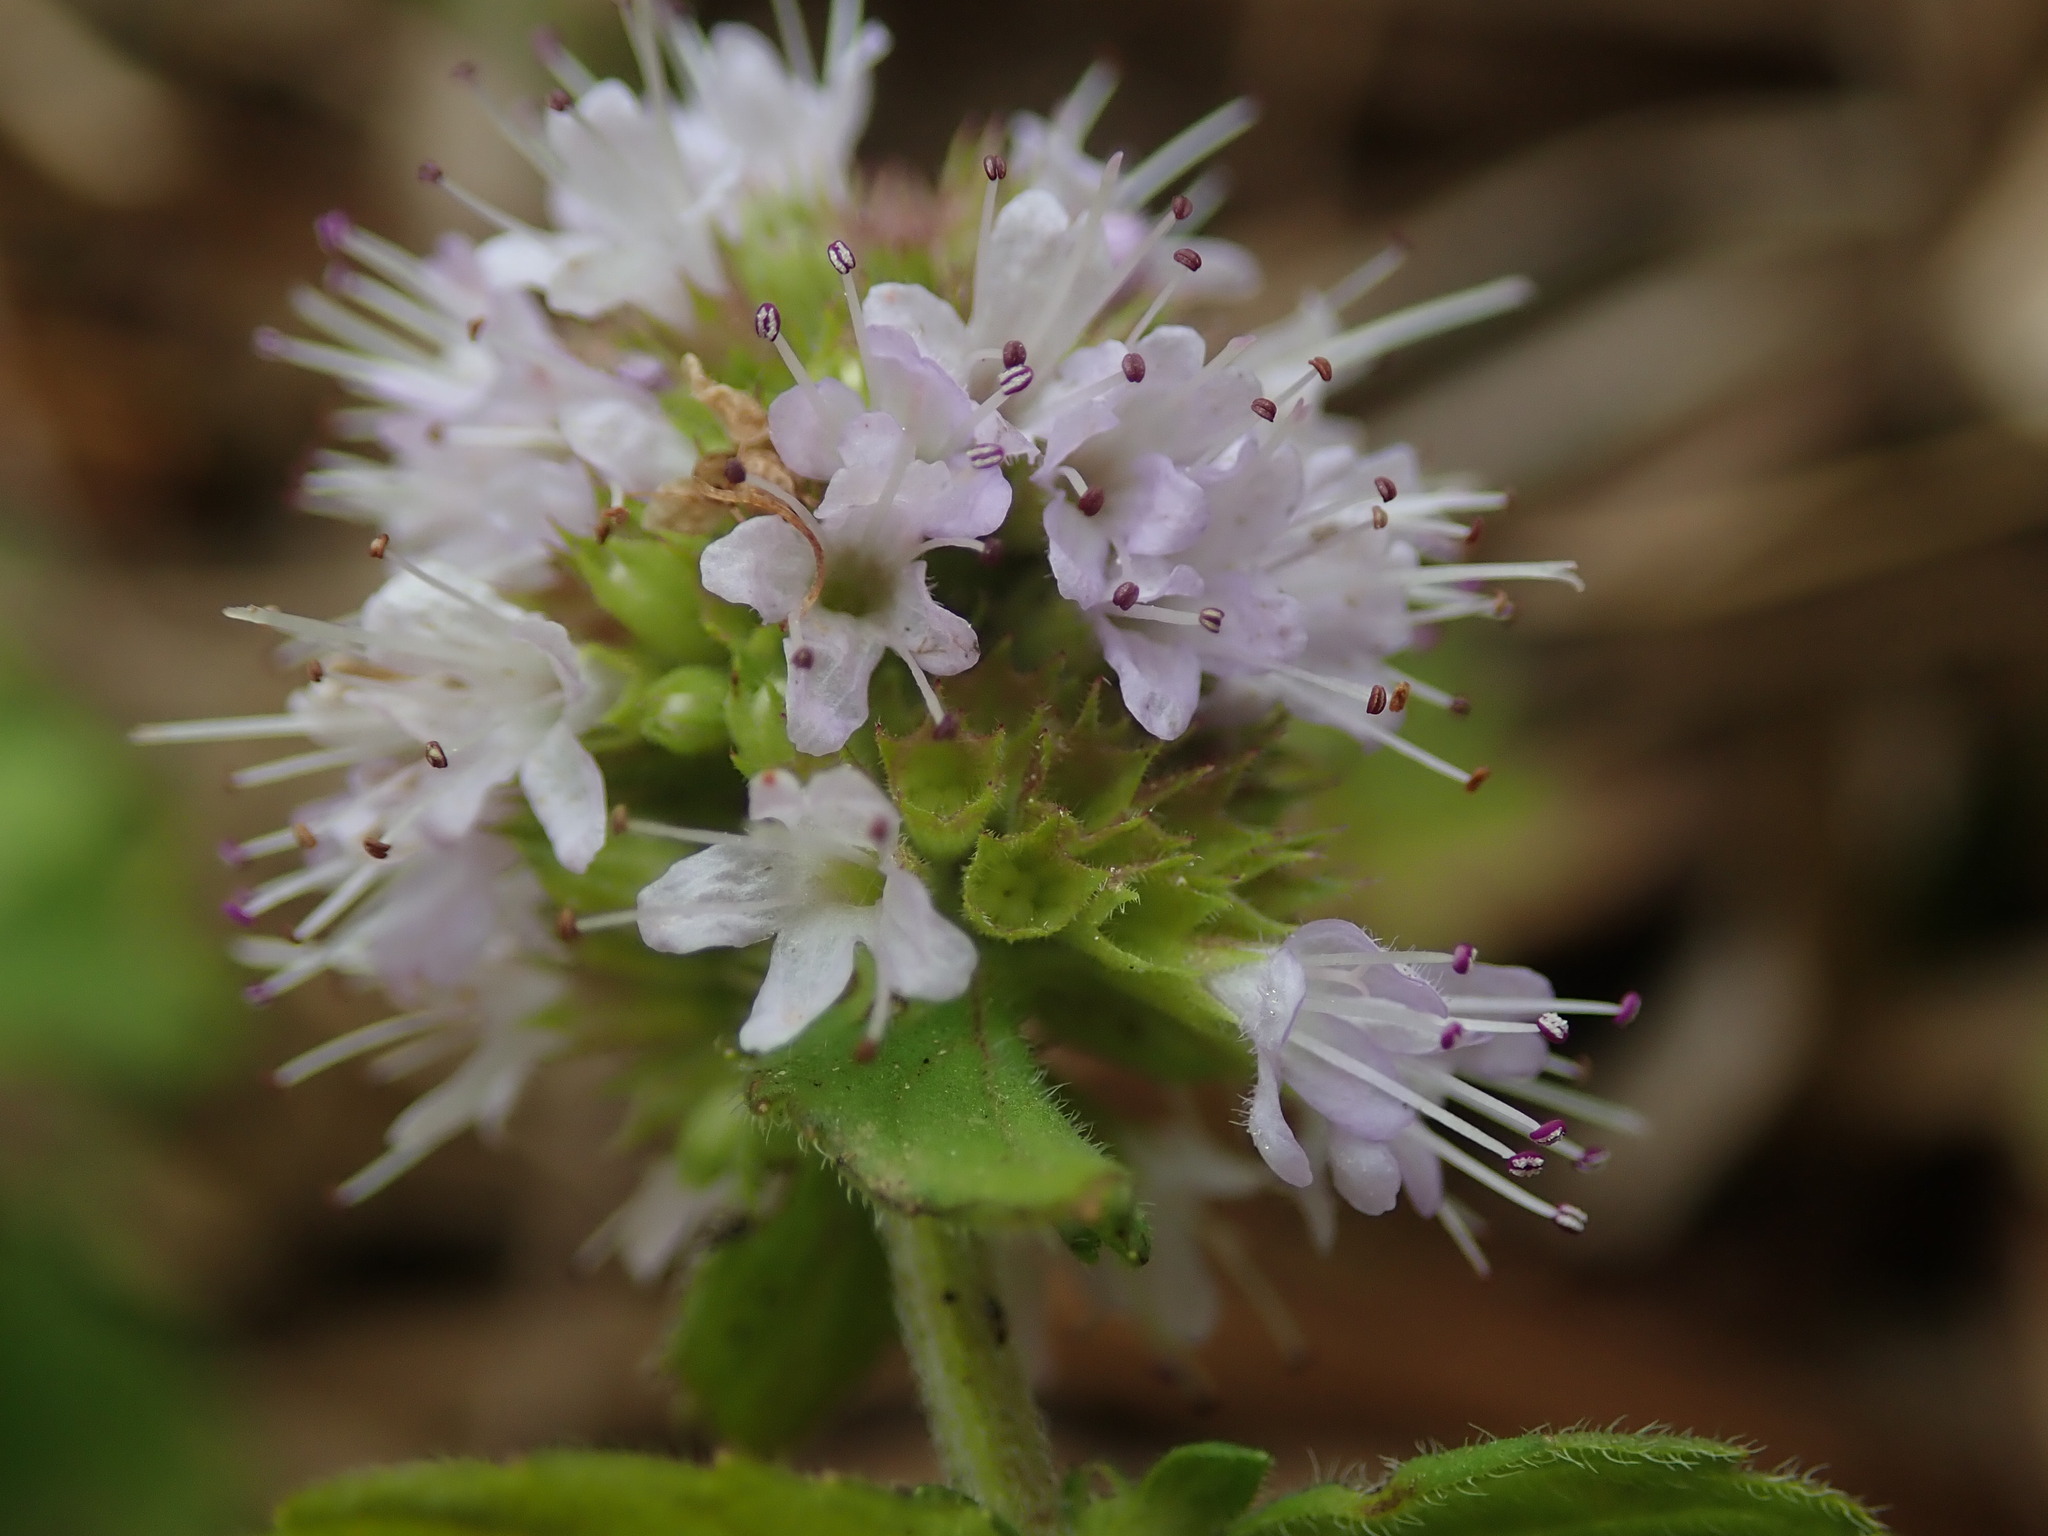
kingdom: Plantae
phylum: Tracheophyta
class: Magnoliopsida
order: Lamiales
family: Lamiaceae
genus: Mentha
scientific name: Mentha aquatica
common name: Water mint
